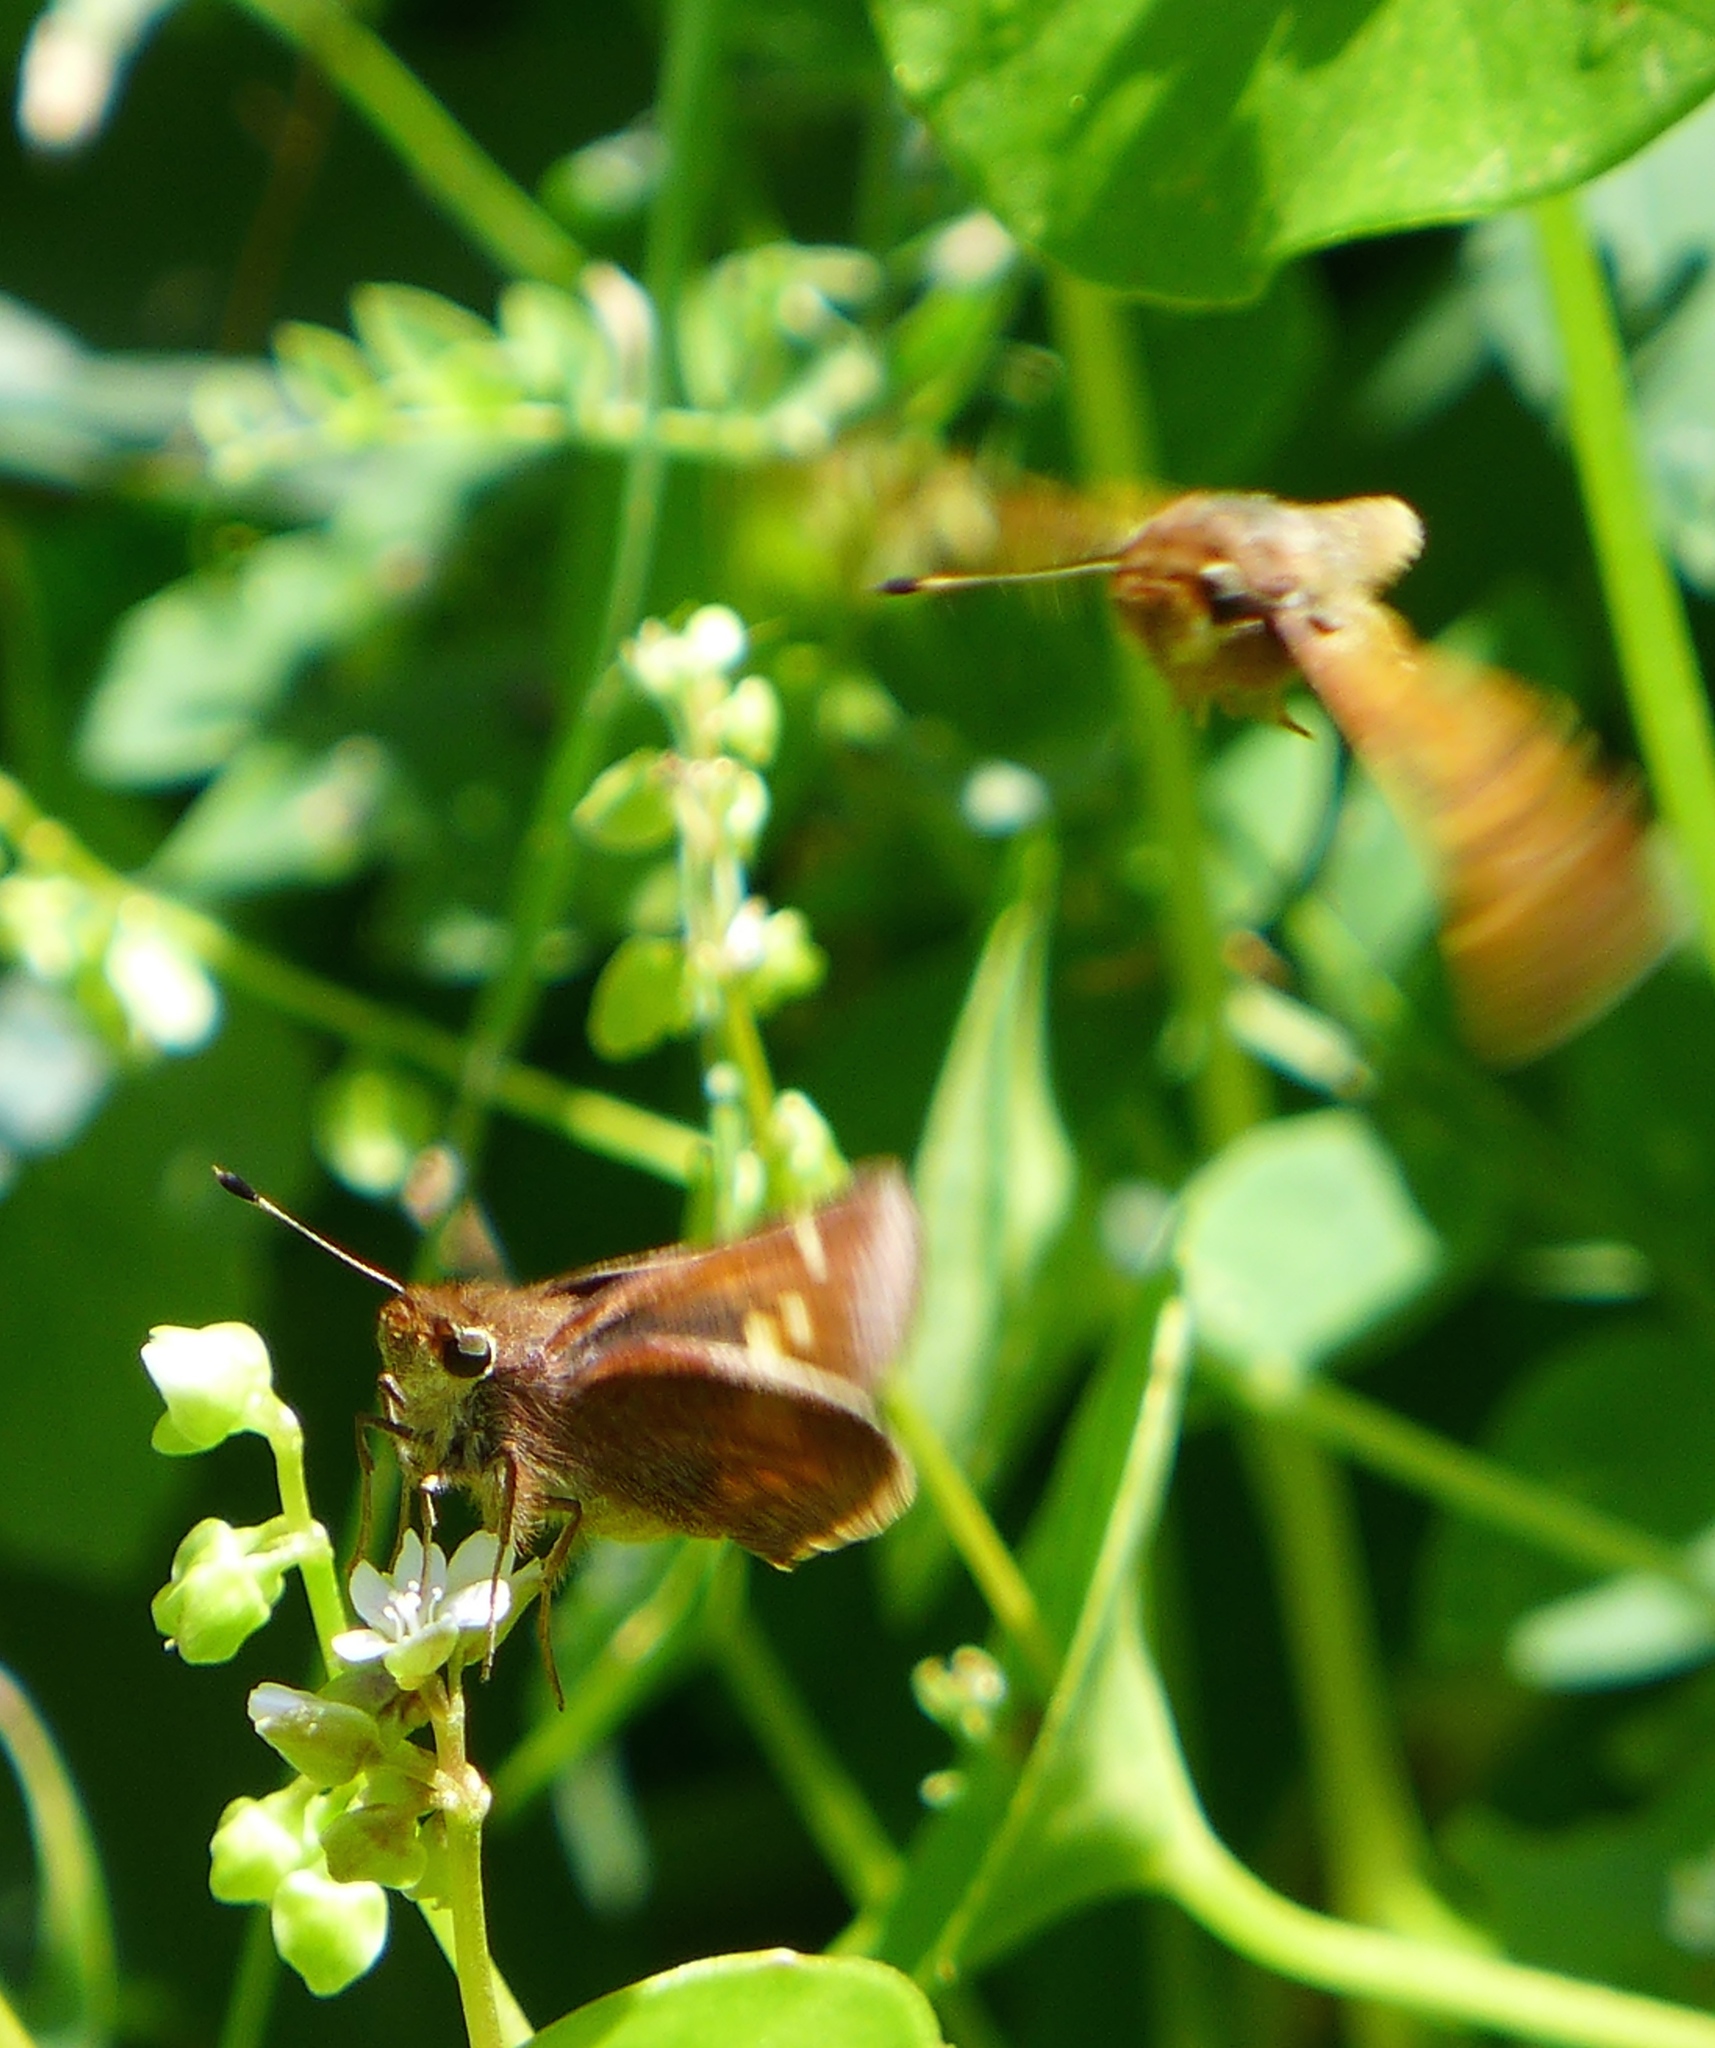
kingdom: Animalia
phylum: Arthropoda
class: Insecta
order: Lepidoptera
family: Hesperiidae
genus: Lon
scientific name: Lon melane
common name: Umber skipper
